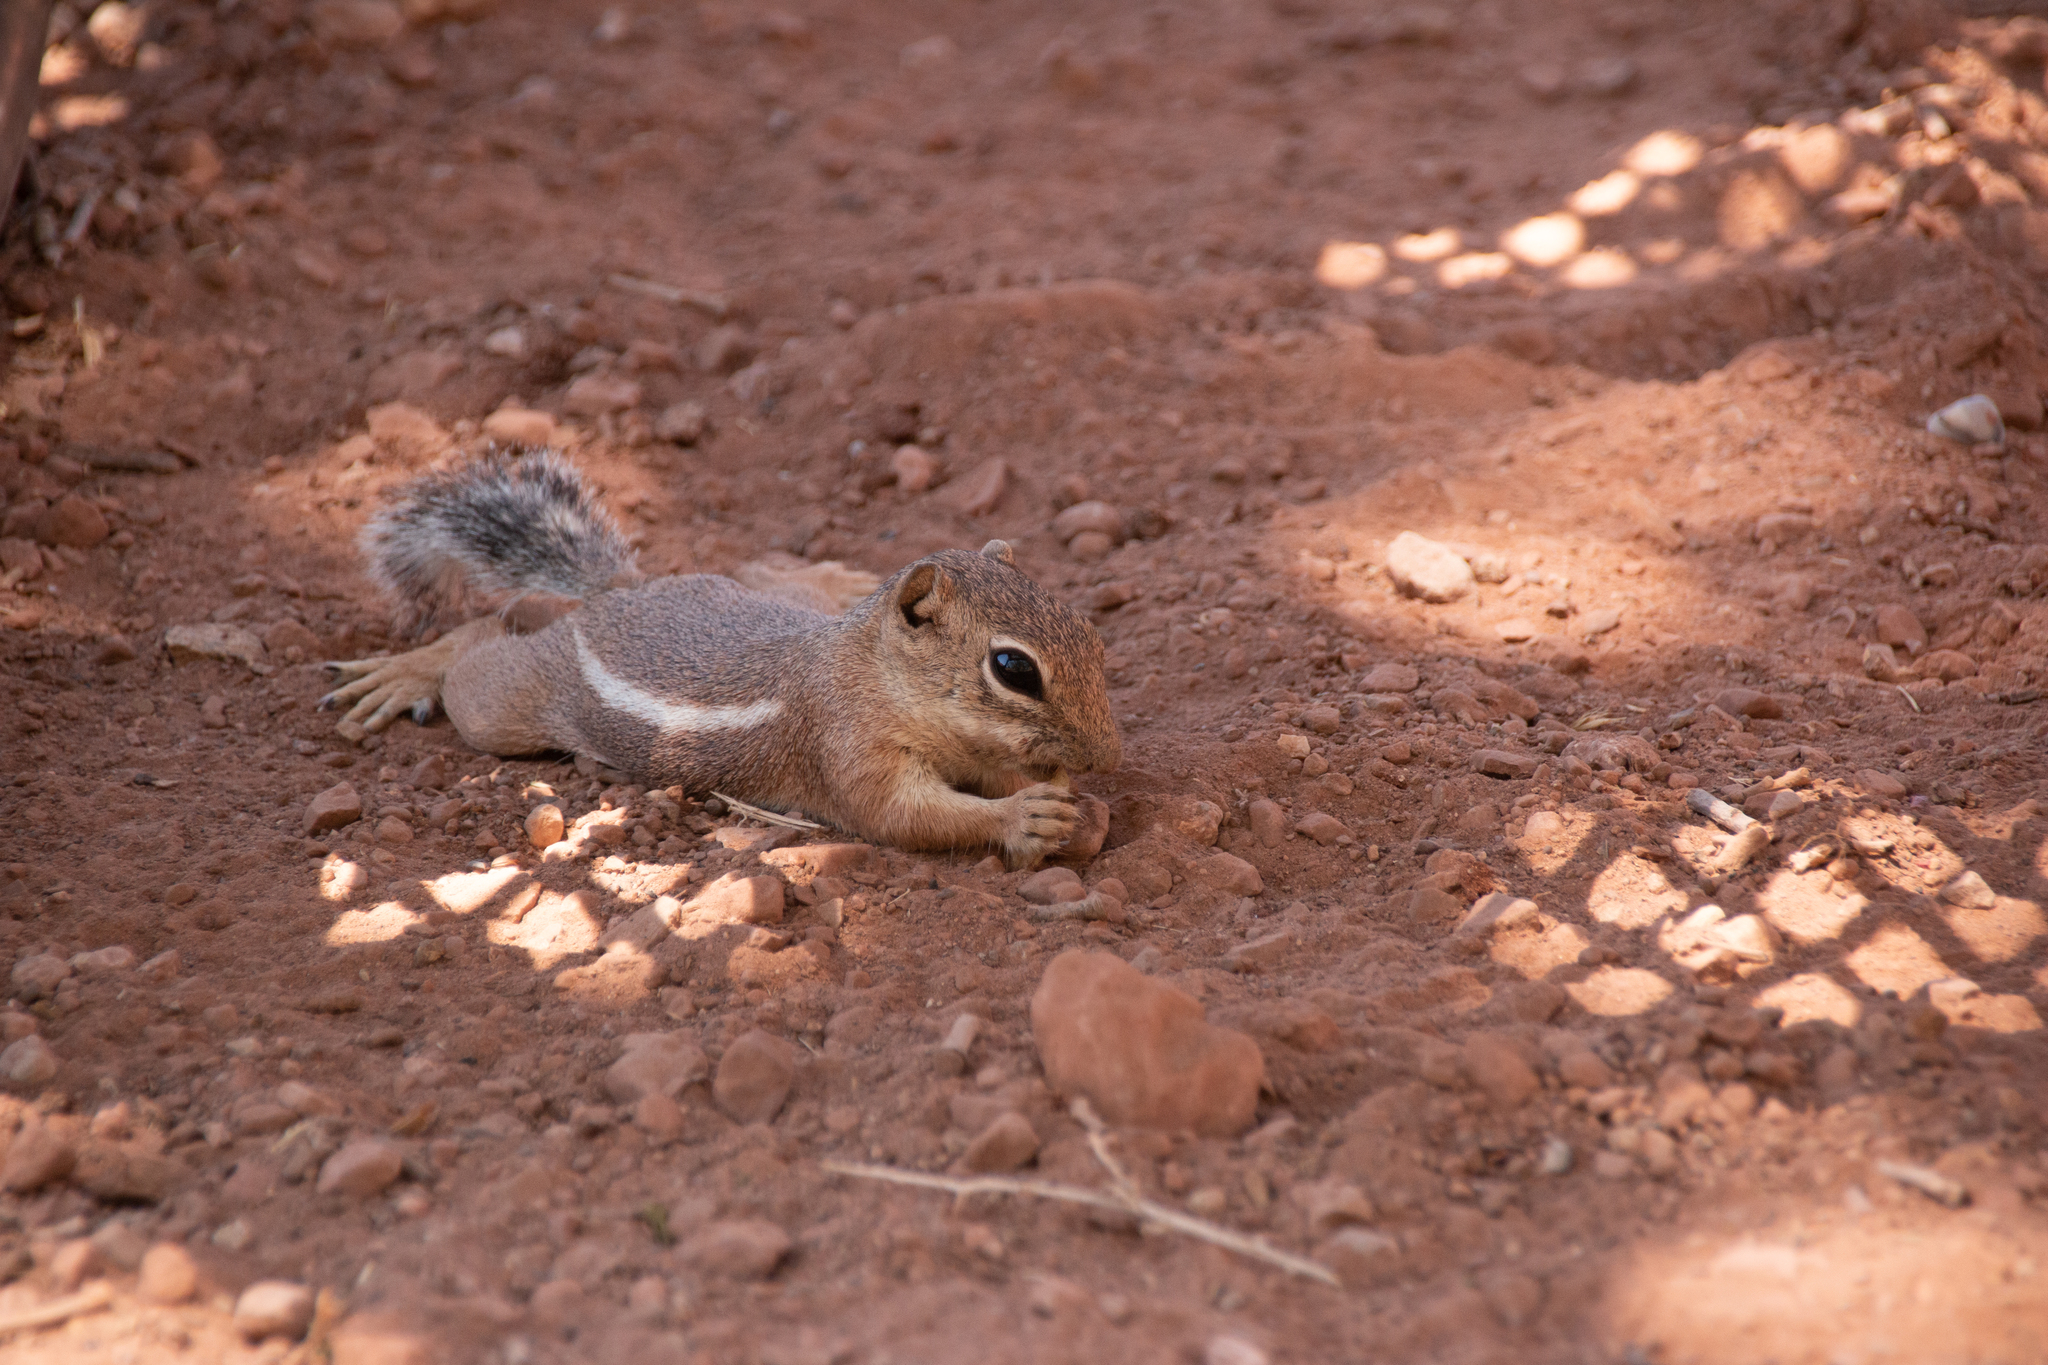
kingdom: Animalia
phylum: Chordata
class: Mammalia
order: Rodentia
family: Sciuridae
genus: Ammospermophilus
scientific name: Ammospermophilus leucurus
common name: White-tailed antelope squirrel
